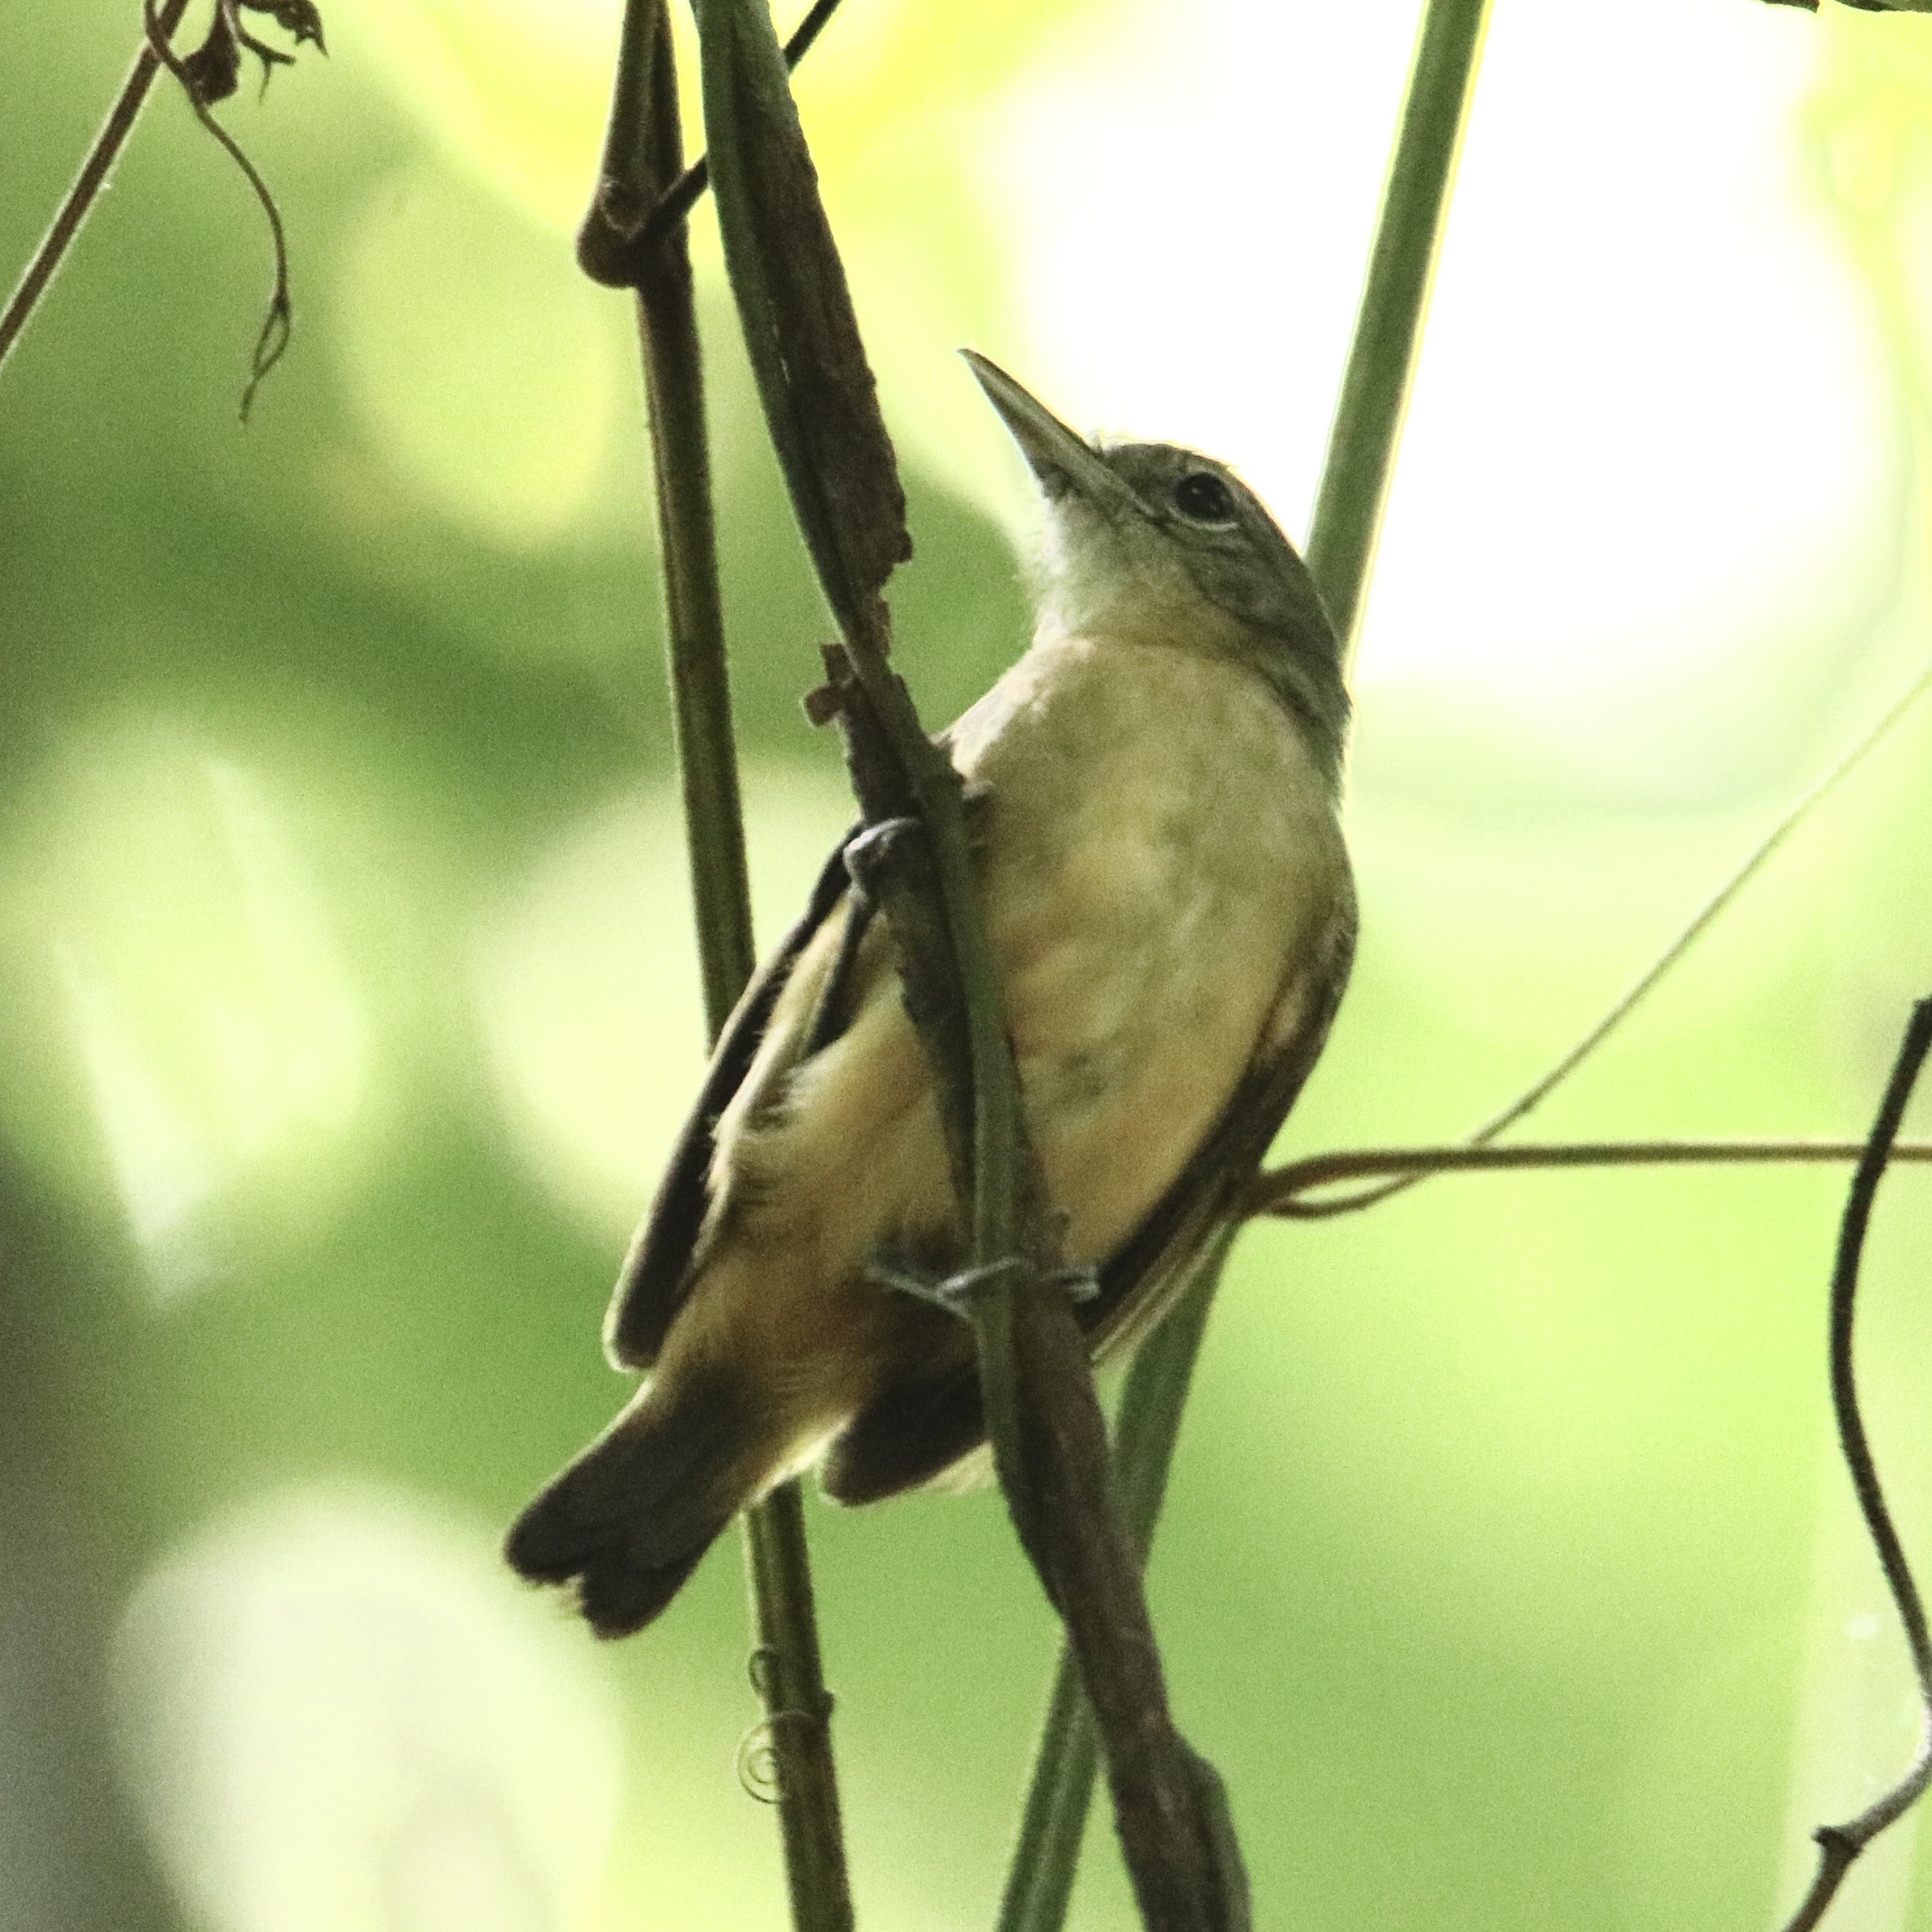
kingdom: Animalia
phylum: Chordata
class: Aves
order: Passeriformes
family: Thamnophilidae
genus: Myrmotherula
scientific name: Myrmotherula axillaris
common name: White-flanked antwren
